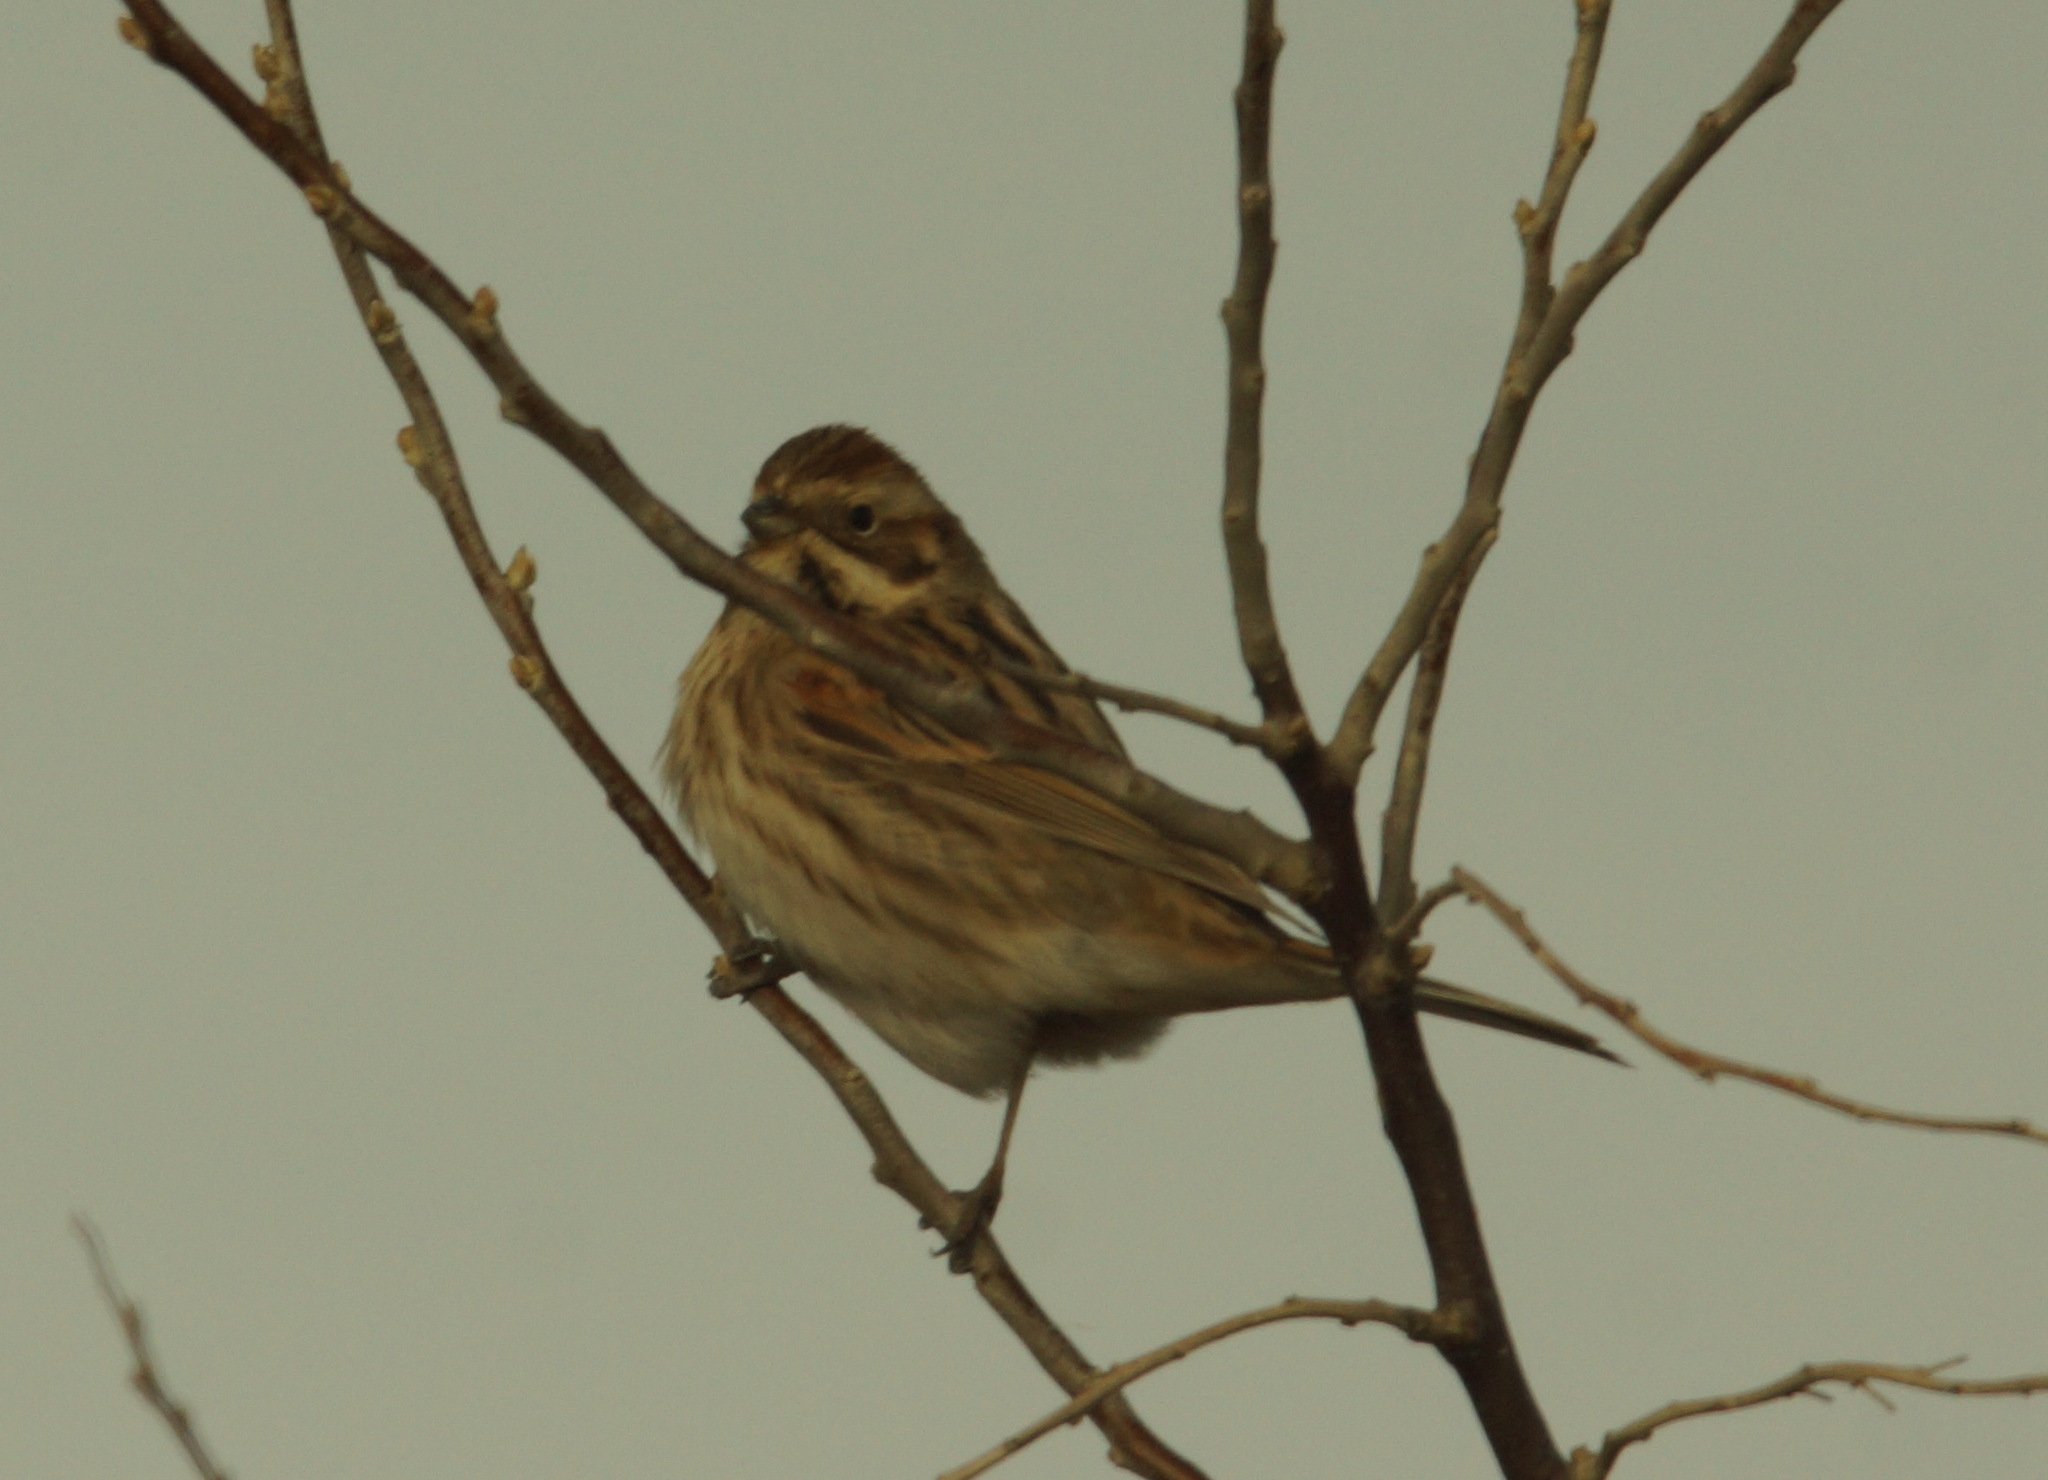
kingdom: Animalia
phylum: Chordata
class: Aves
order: Passeriformes
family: Emberizidae
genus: Emberiza
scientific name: Emberiza schoeniclus
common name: Reed bunting
